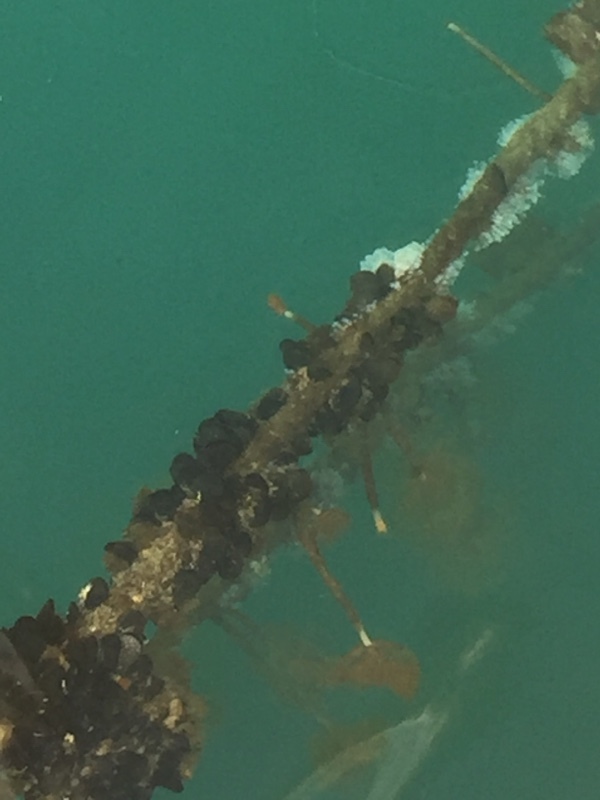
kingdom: Animalia
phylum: Annelida
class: Polychaeta
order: Sabellida
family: Sabellidae
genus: Sabella
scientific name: Sabella spallanzanii
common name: Feather duster worm
